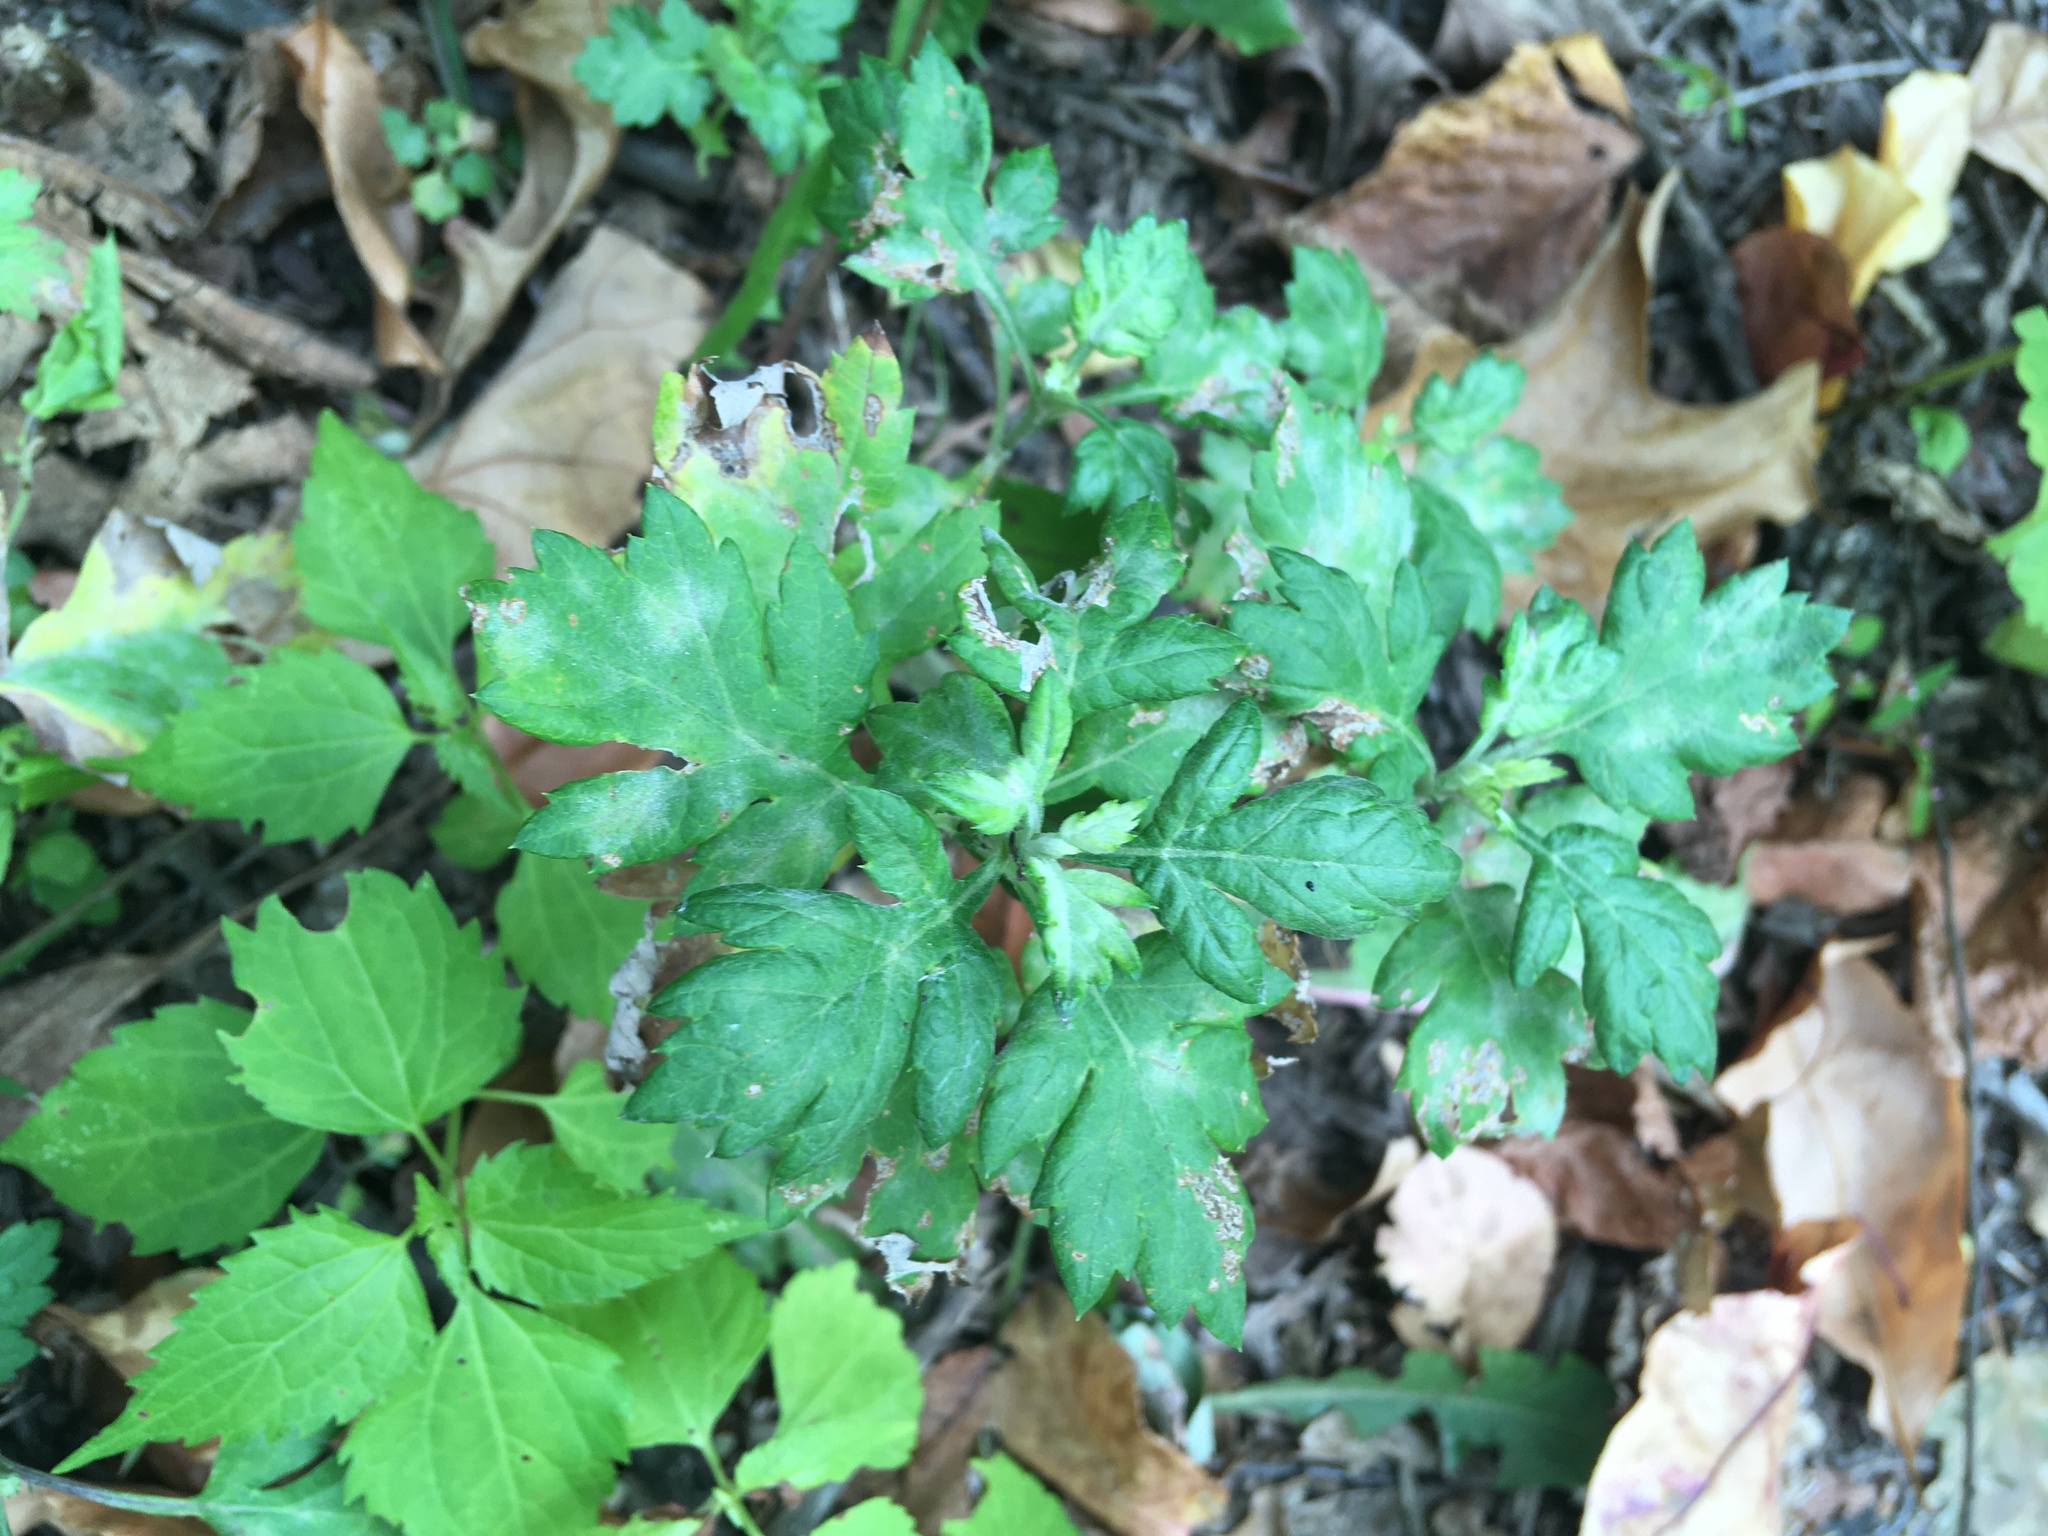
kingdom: Plantae
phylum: Tracheophyta
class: Magnoliopsida
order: Asterales
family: Asteraceae
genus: Artemisia
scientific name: Artemisia vulgaris
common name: Mugwort
